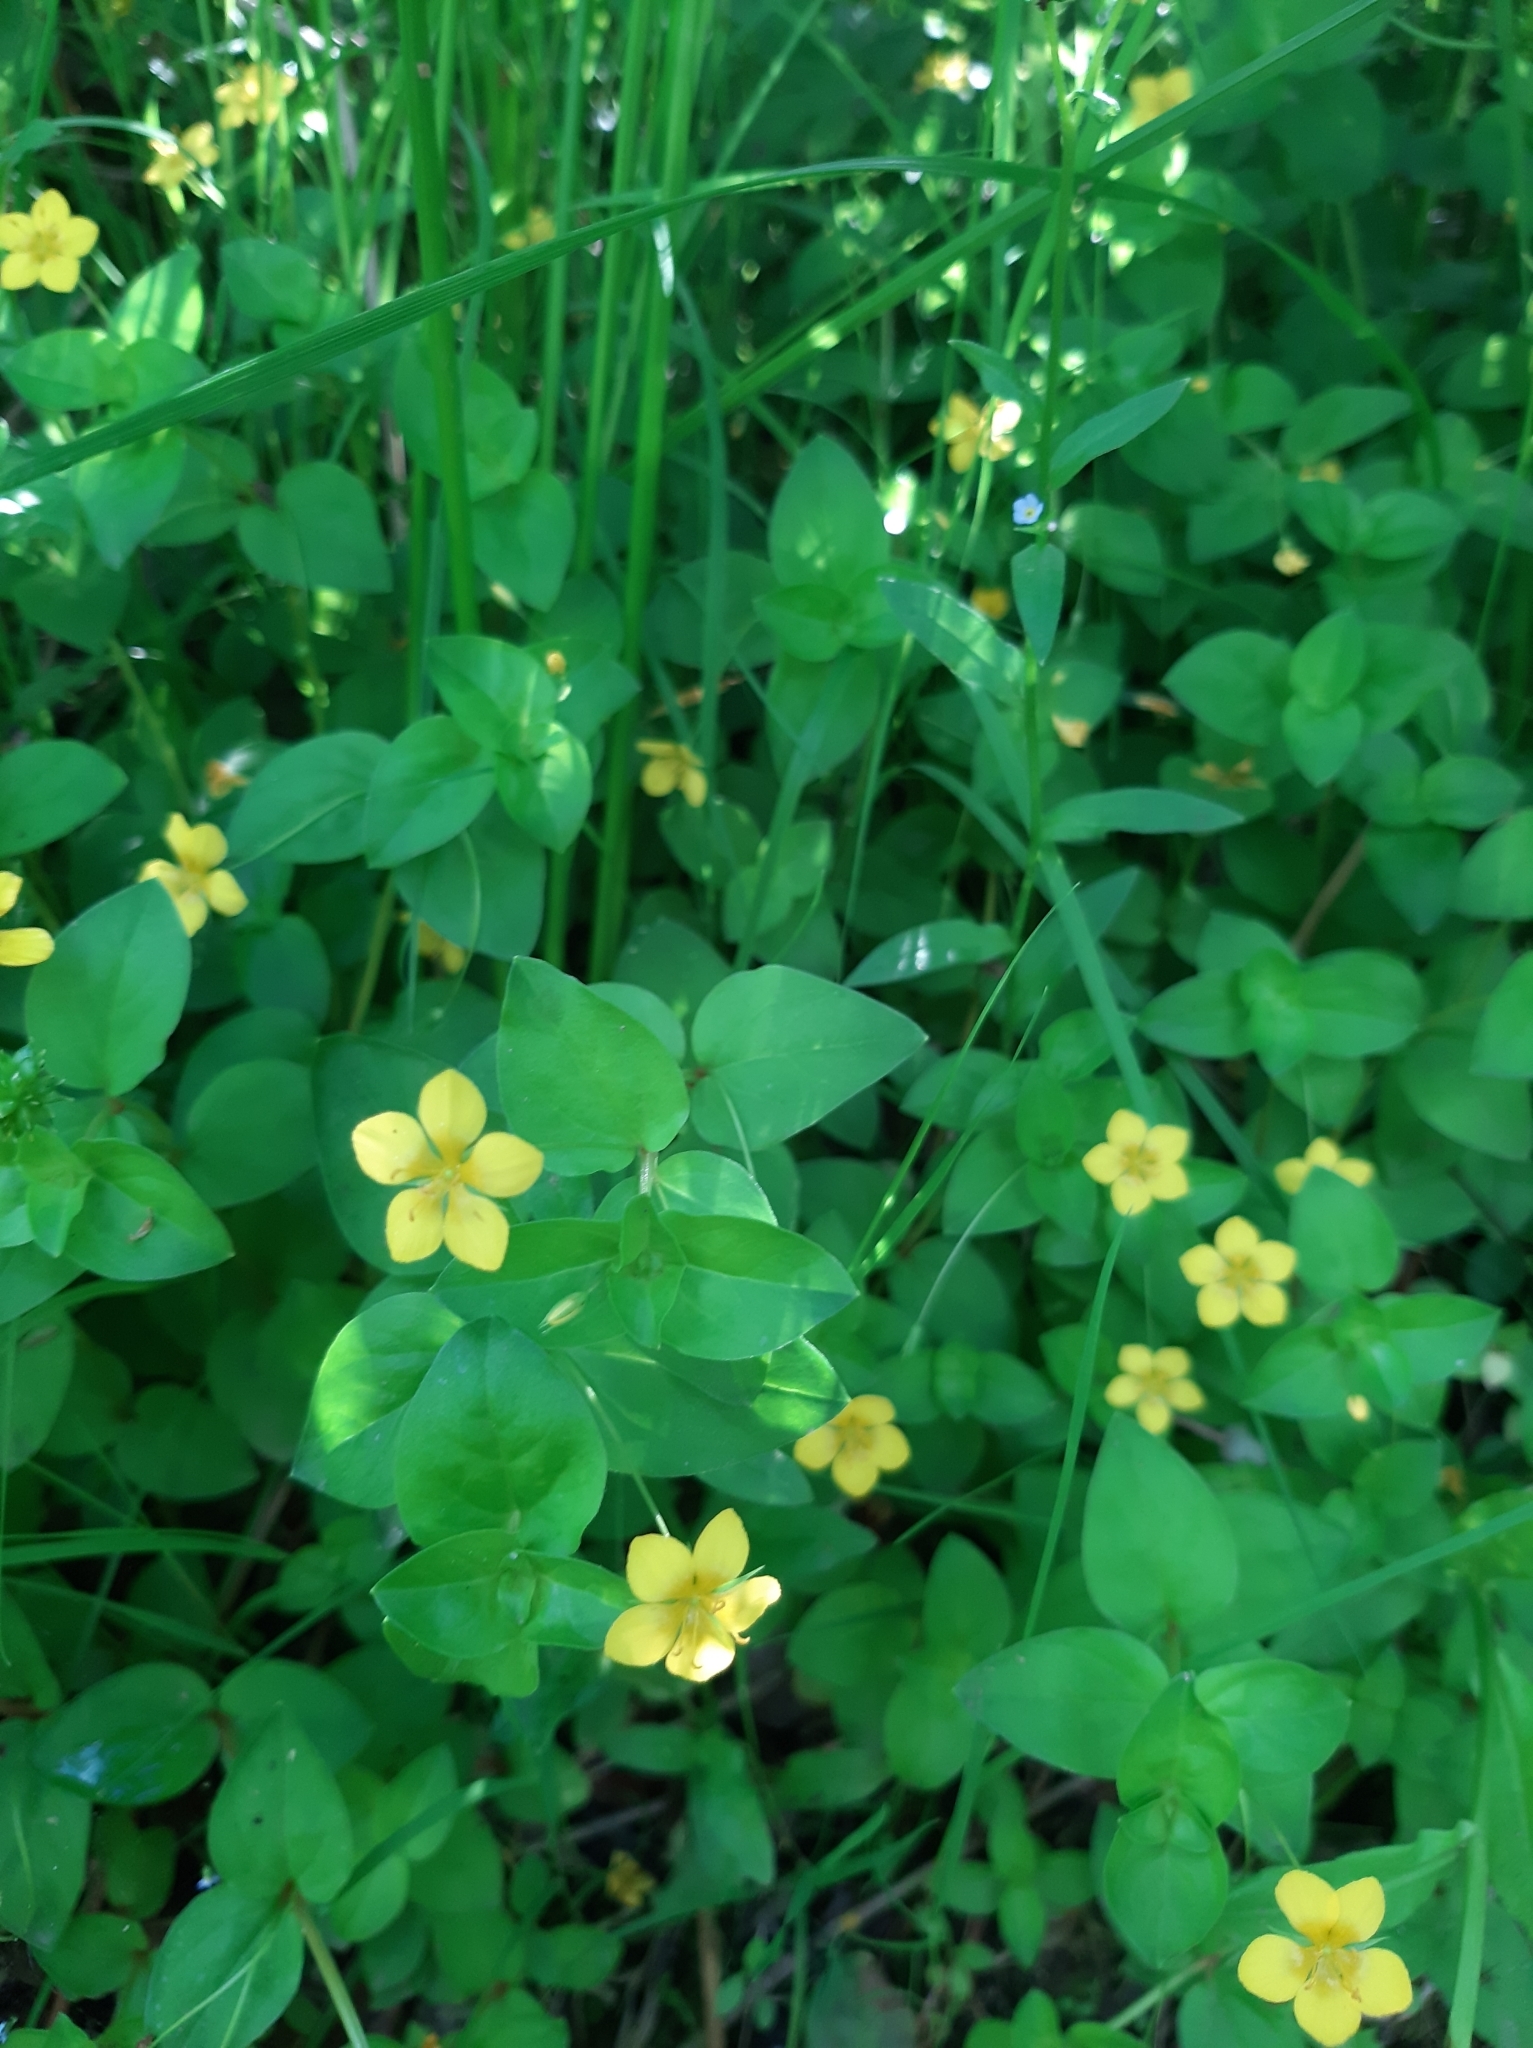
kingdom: Plantae
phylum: Tracheophyta
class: Magnoliopsida
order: Ericales
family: Primulaceae
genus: Lysimachia
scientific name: Lysimachia nemorum
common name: Yellow pimpernel
